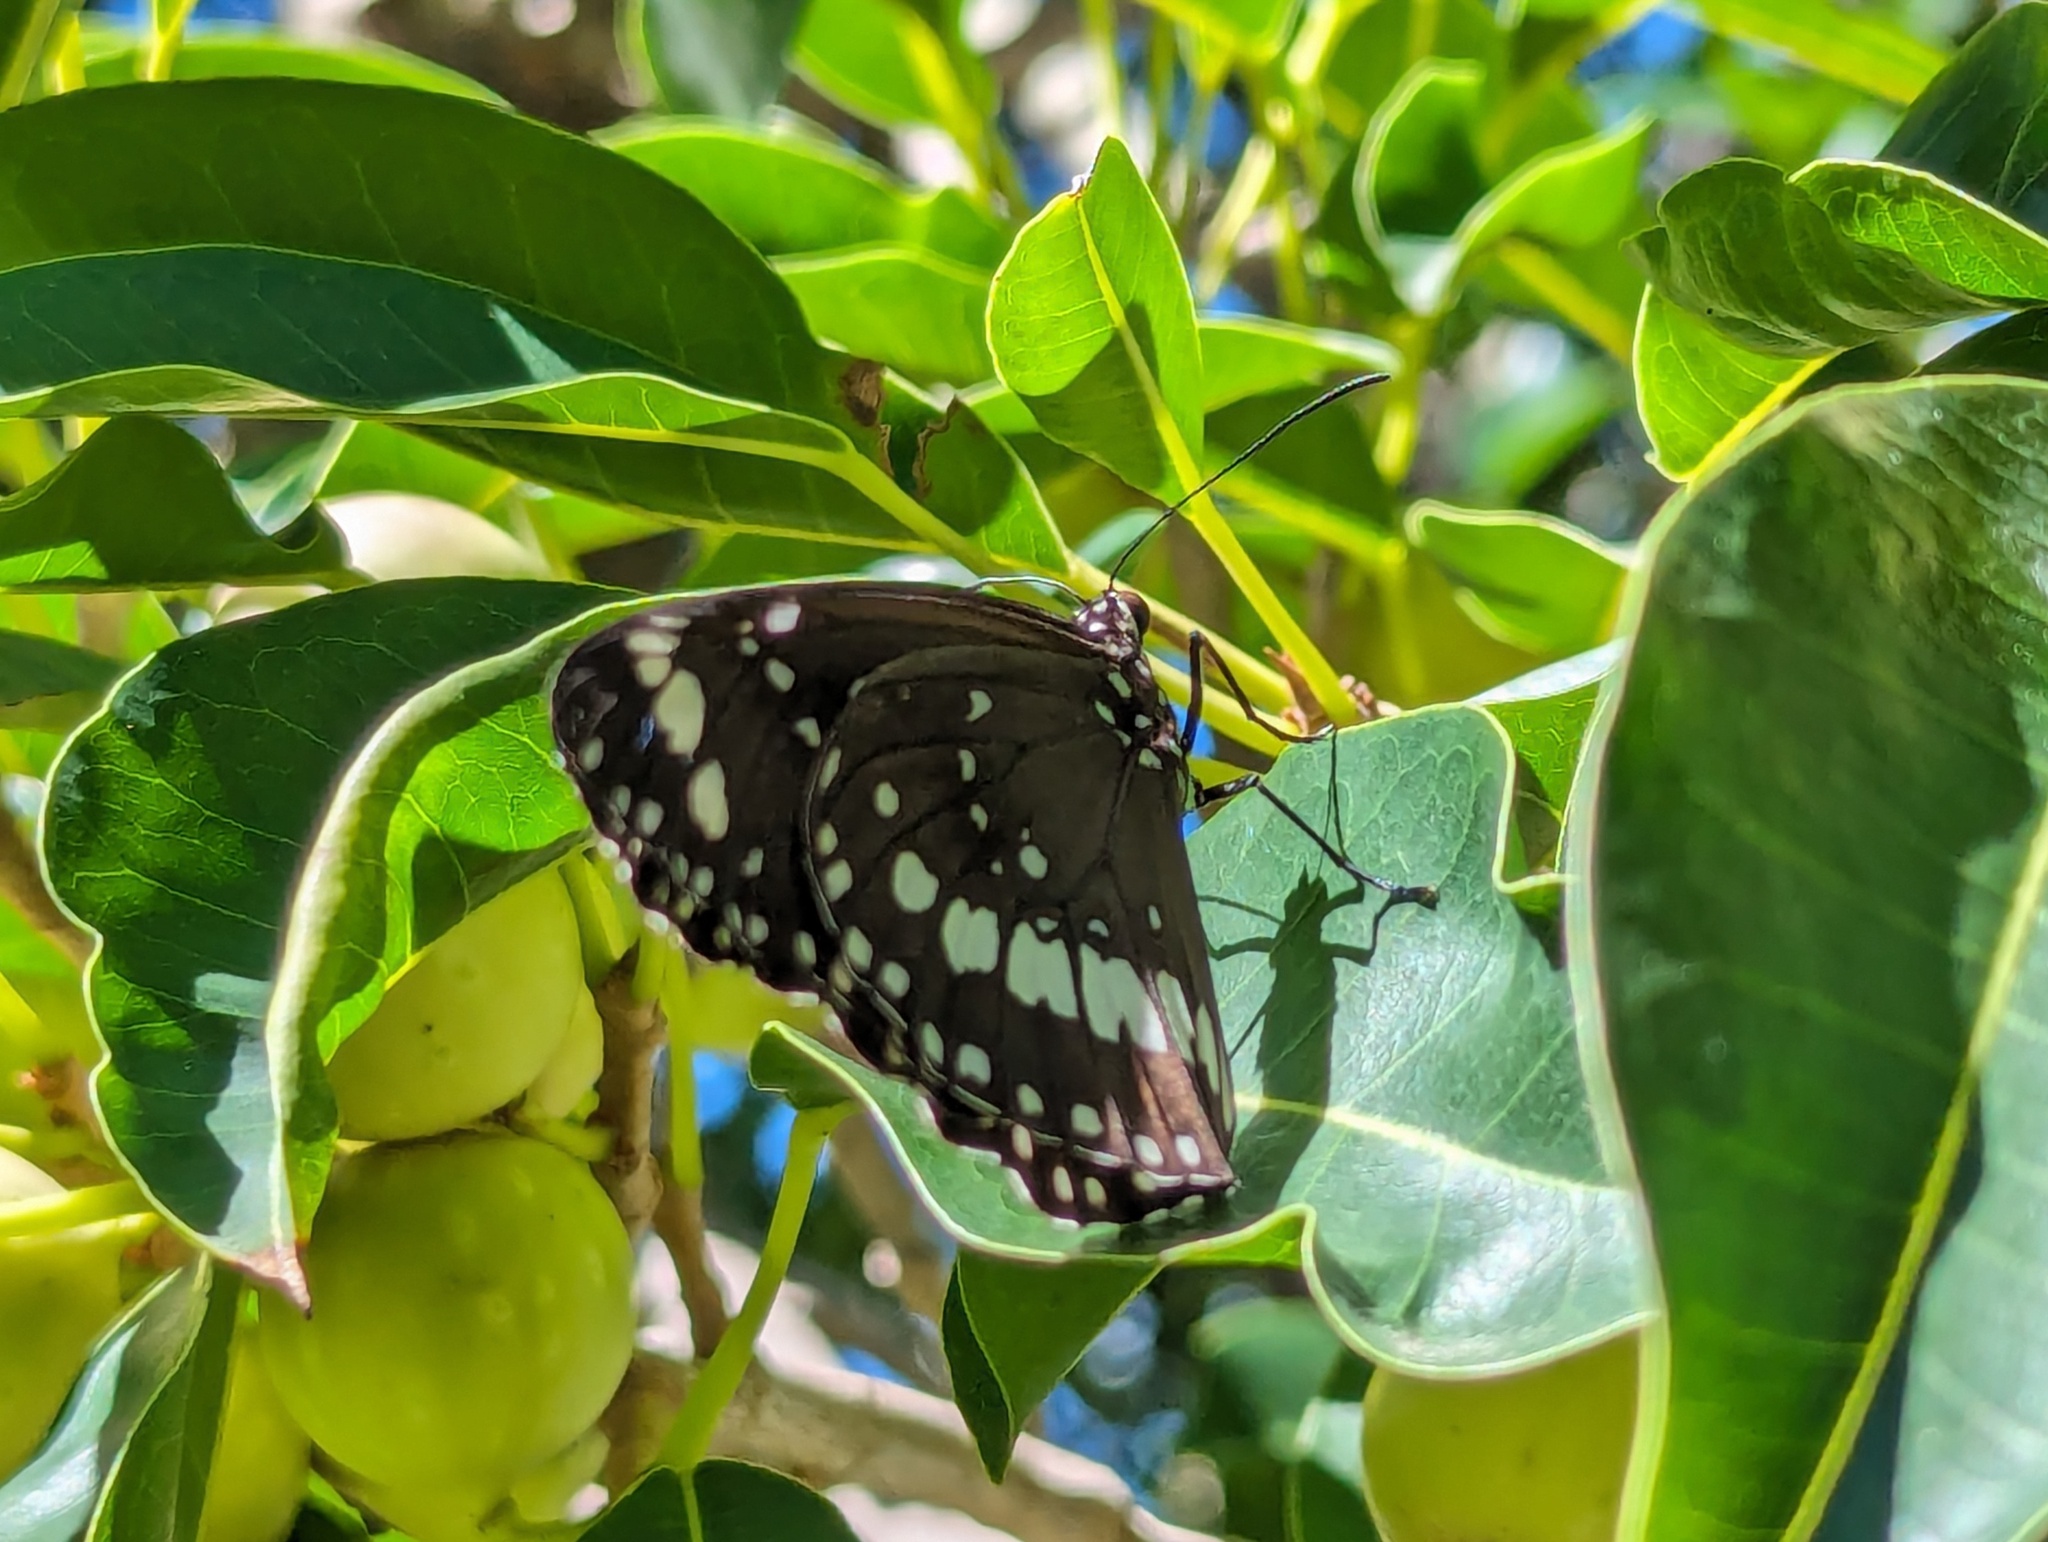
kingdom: Animalia
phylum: Arthropoda
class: Insecta
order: Lepidoptera
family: Nymphalidae
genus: Euploea
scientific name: Euploea core
